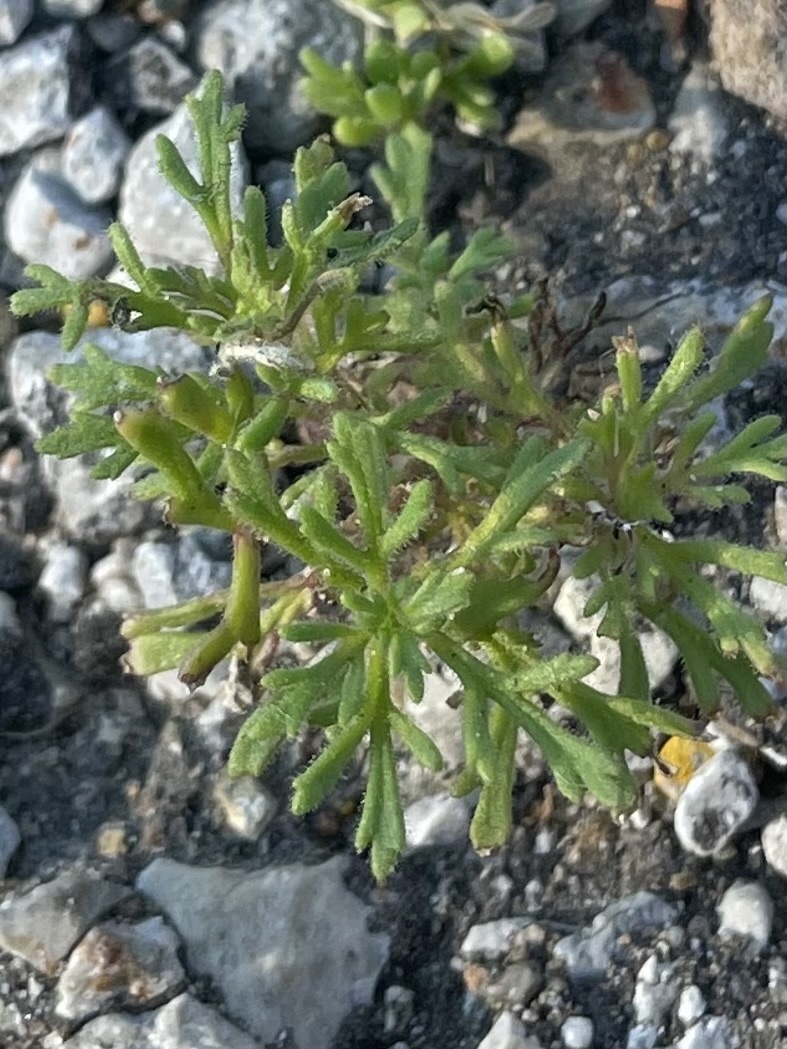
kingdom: Plantae
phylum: Tracheophyta
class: Magnoliopsida
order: Lamiales
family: Plantaginaceae
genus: Leucospora
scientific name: Leucospora multifida
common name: Narrow-leaf paleseed
